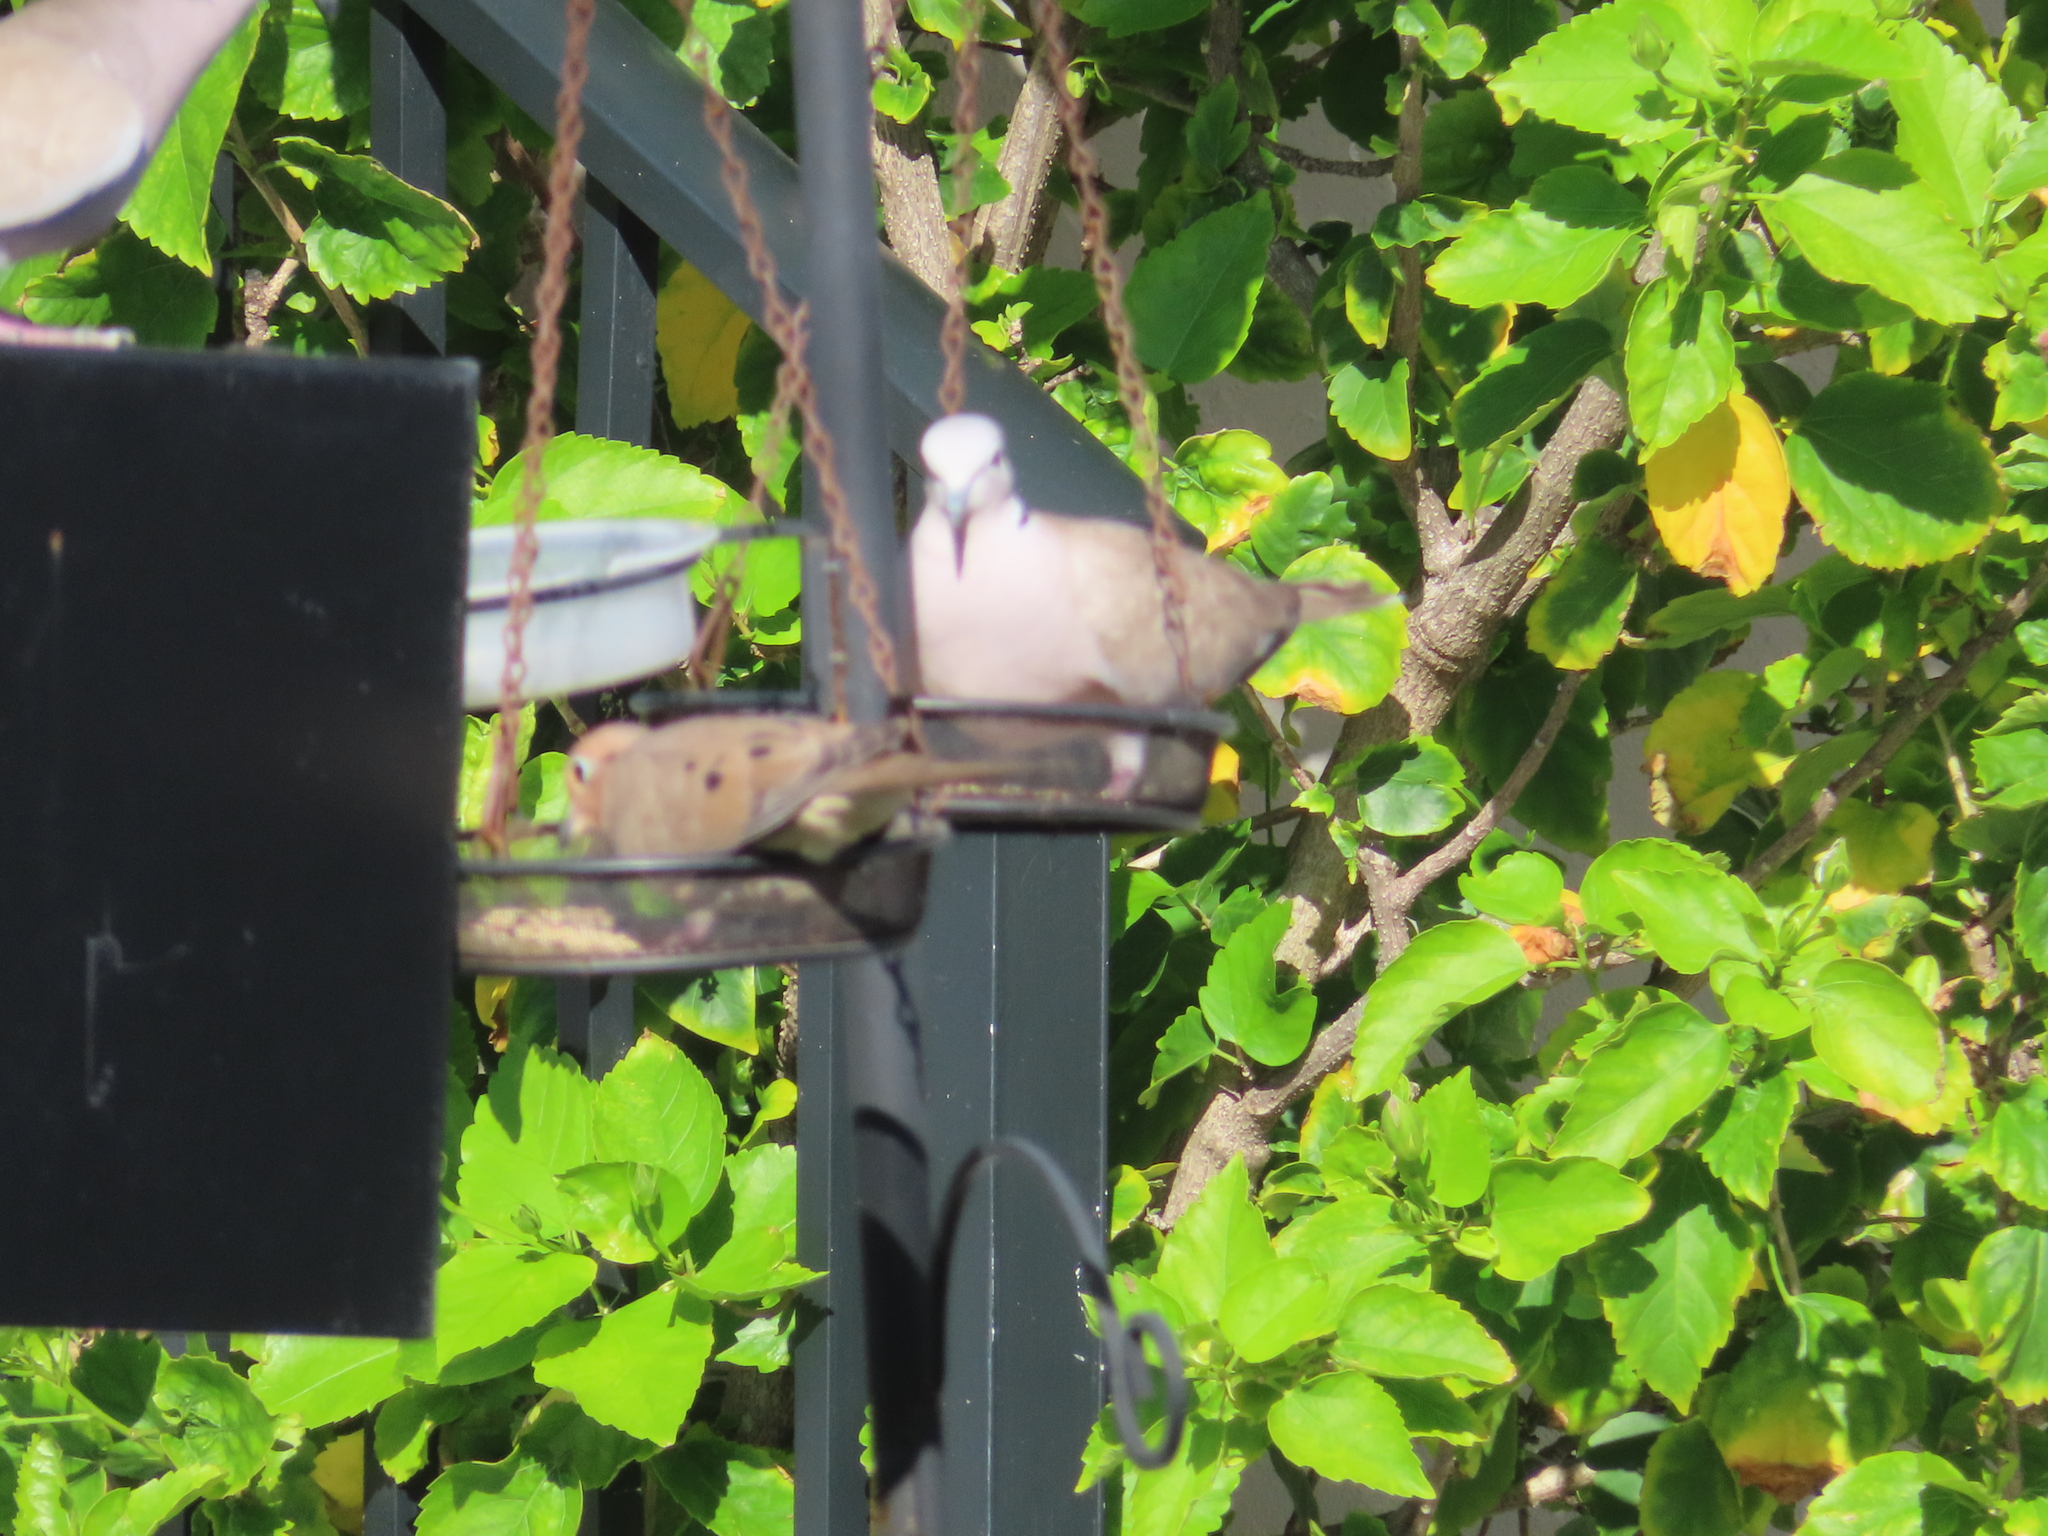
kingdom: Animalia
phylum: Chordata
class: Aves
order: Columbiformes
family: Columbidae
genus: Streptopelia
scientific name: Streptopelia decaocto
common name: Eurasian collared dove
